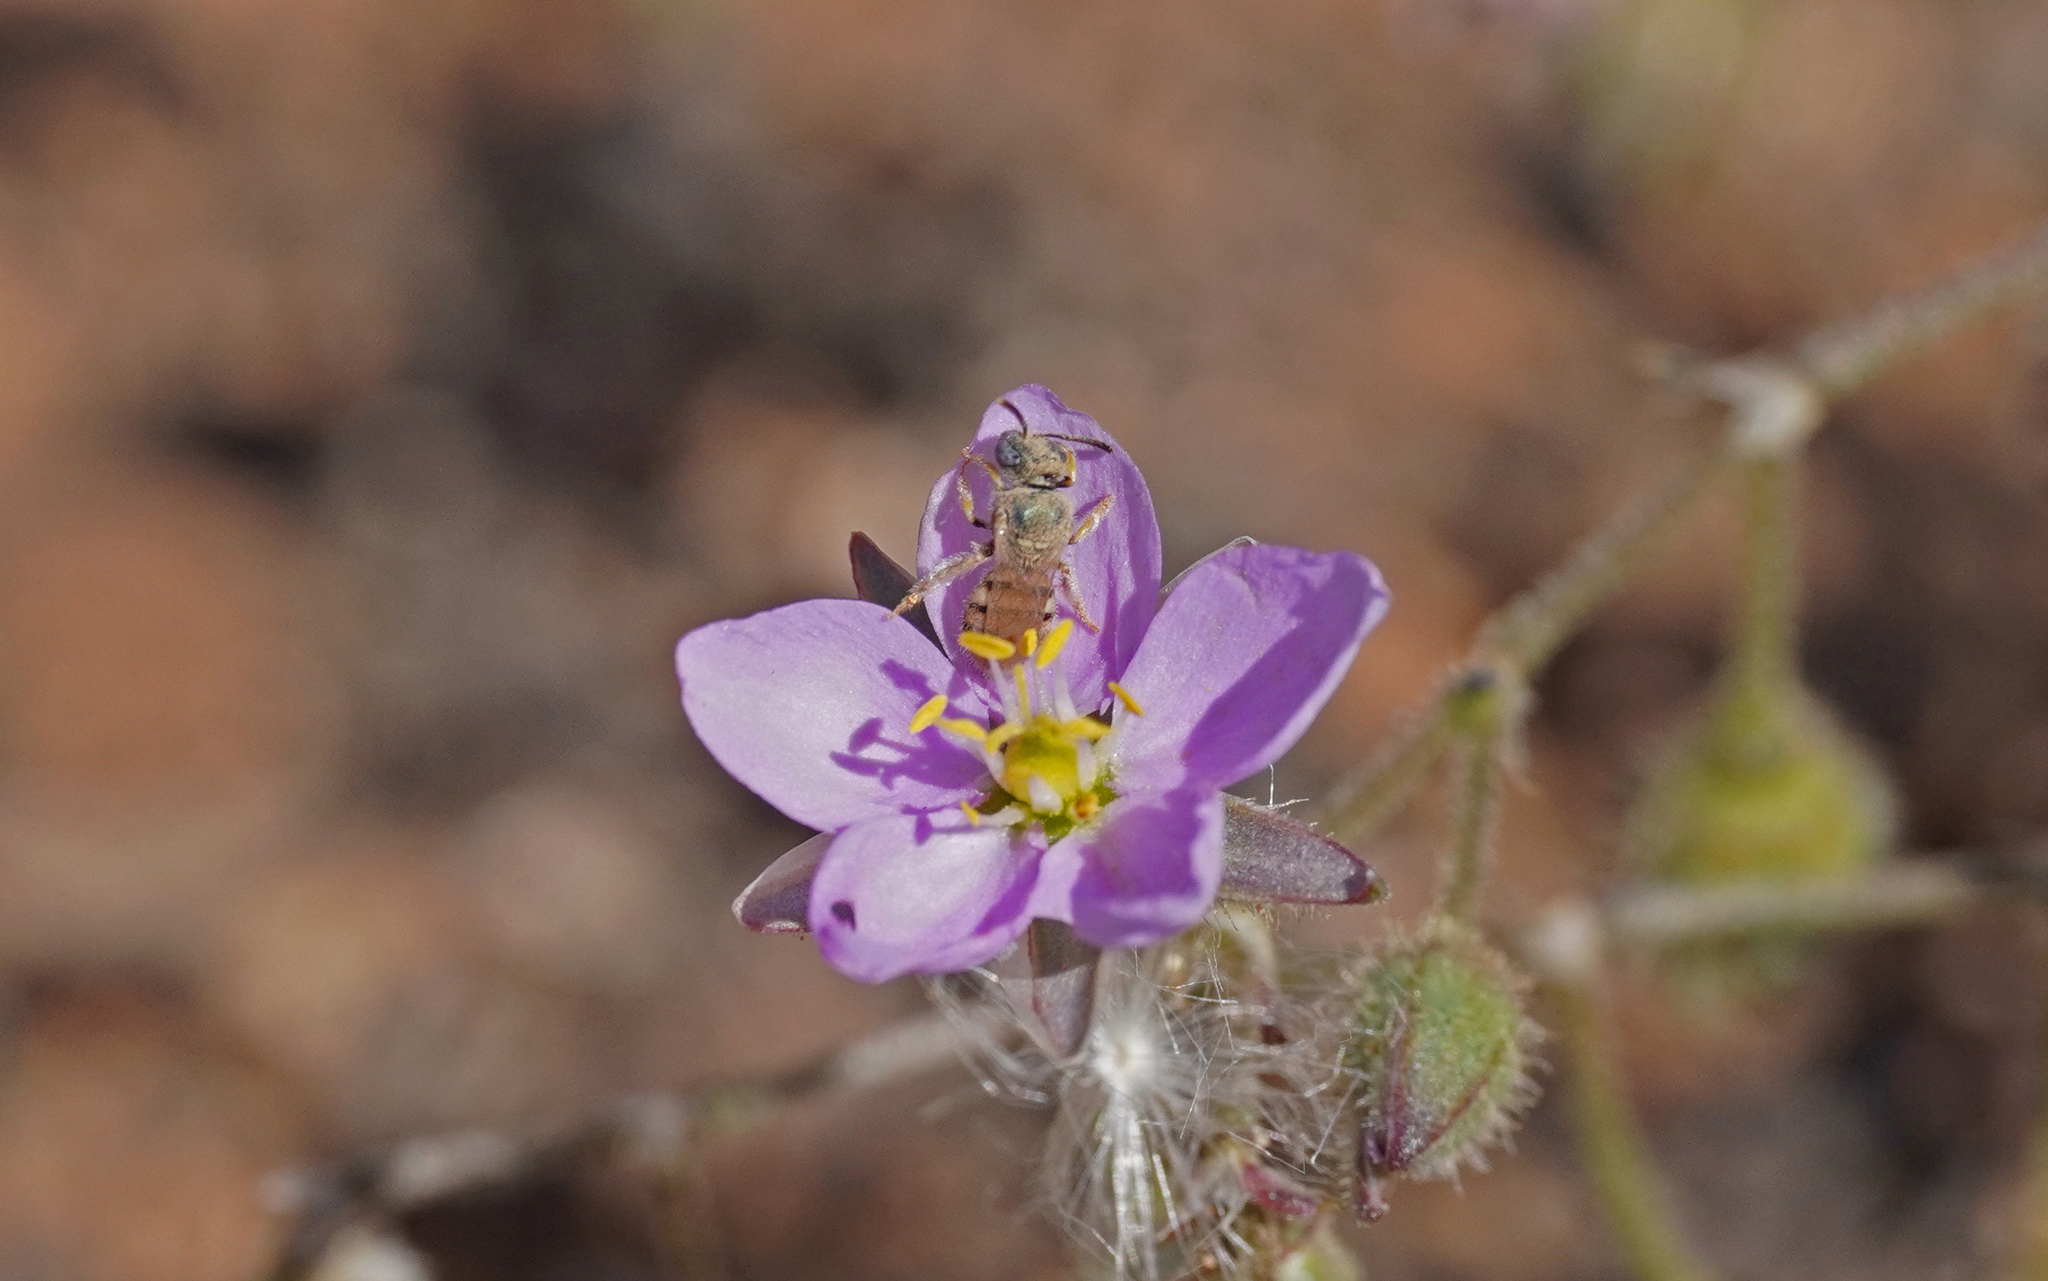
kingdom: Animalia
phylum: Arthropoda
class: Insecta
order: Hymenoptera
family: Halictidae
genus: Nomioides
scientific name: Nomioides deceptor
